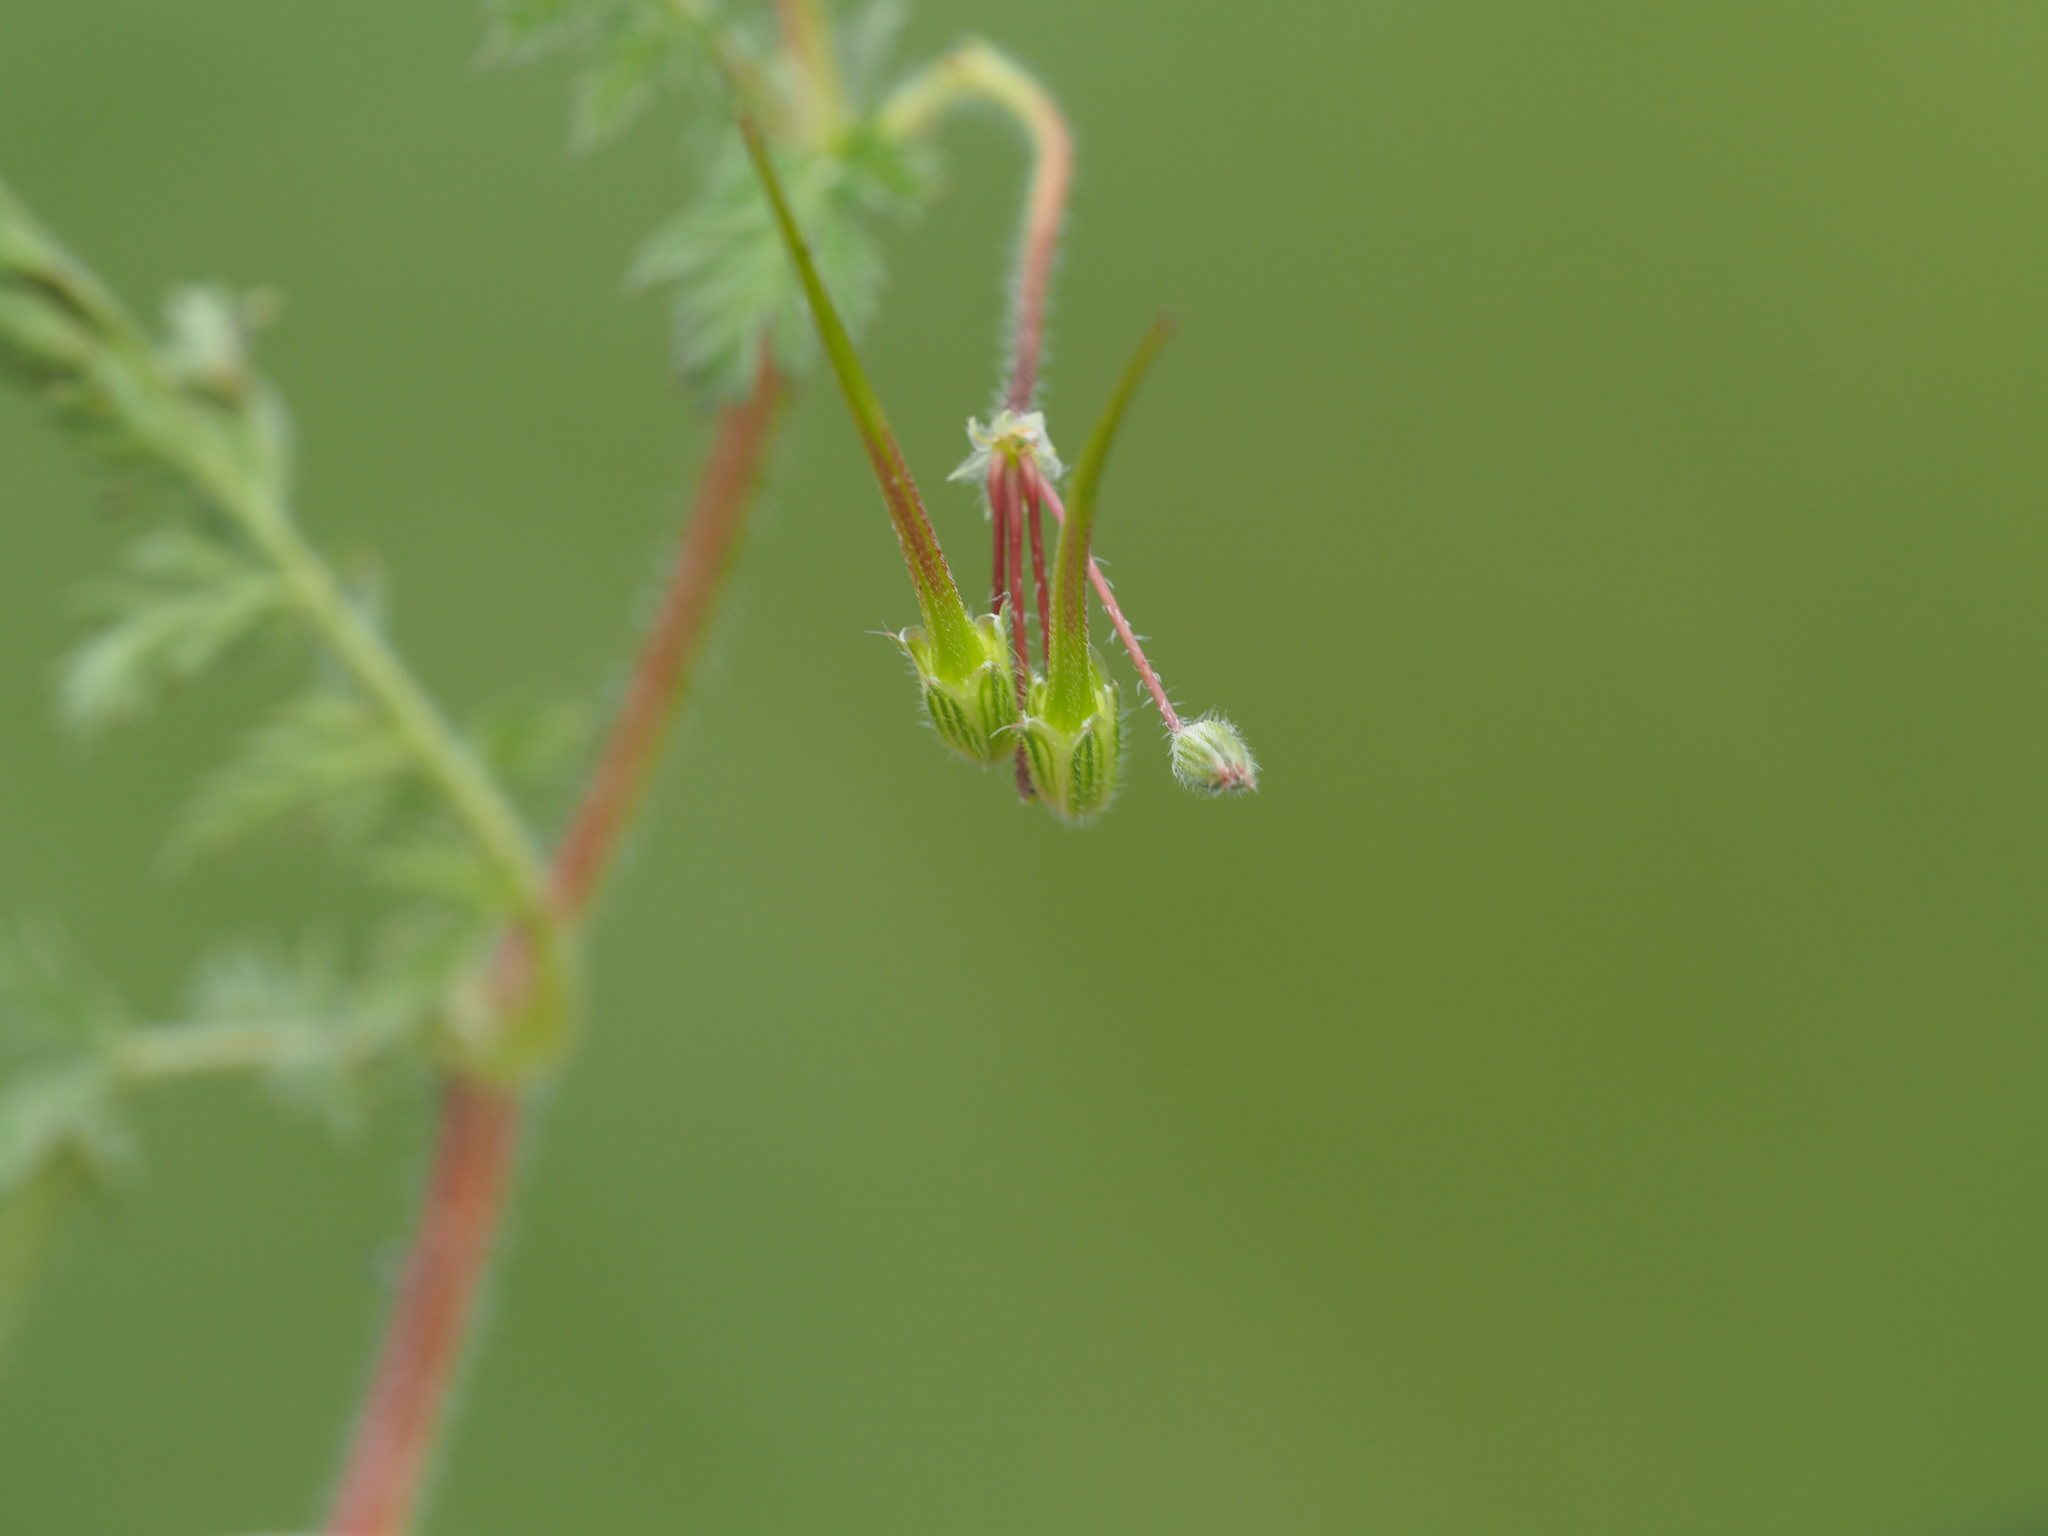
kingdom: Plantae
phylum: Tracheophyta
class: Magnoliopsida
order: Geraniales
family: Geraniaceae
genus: Erodium
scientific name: Erodium cicutarium
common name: Common stork's-bill
